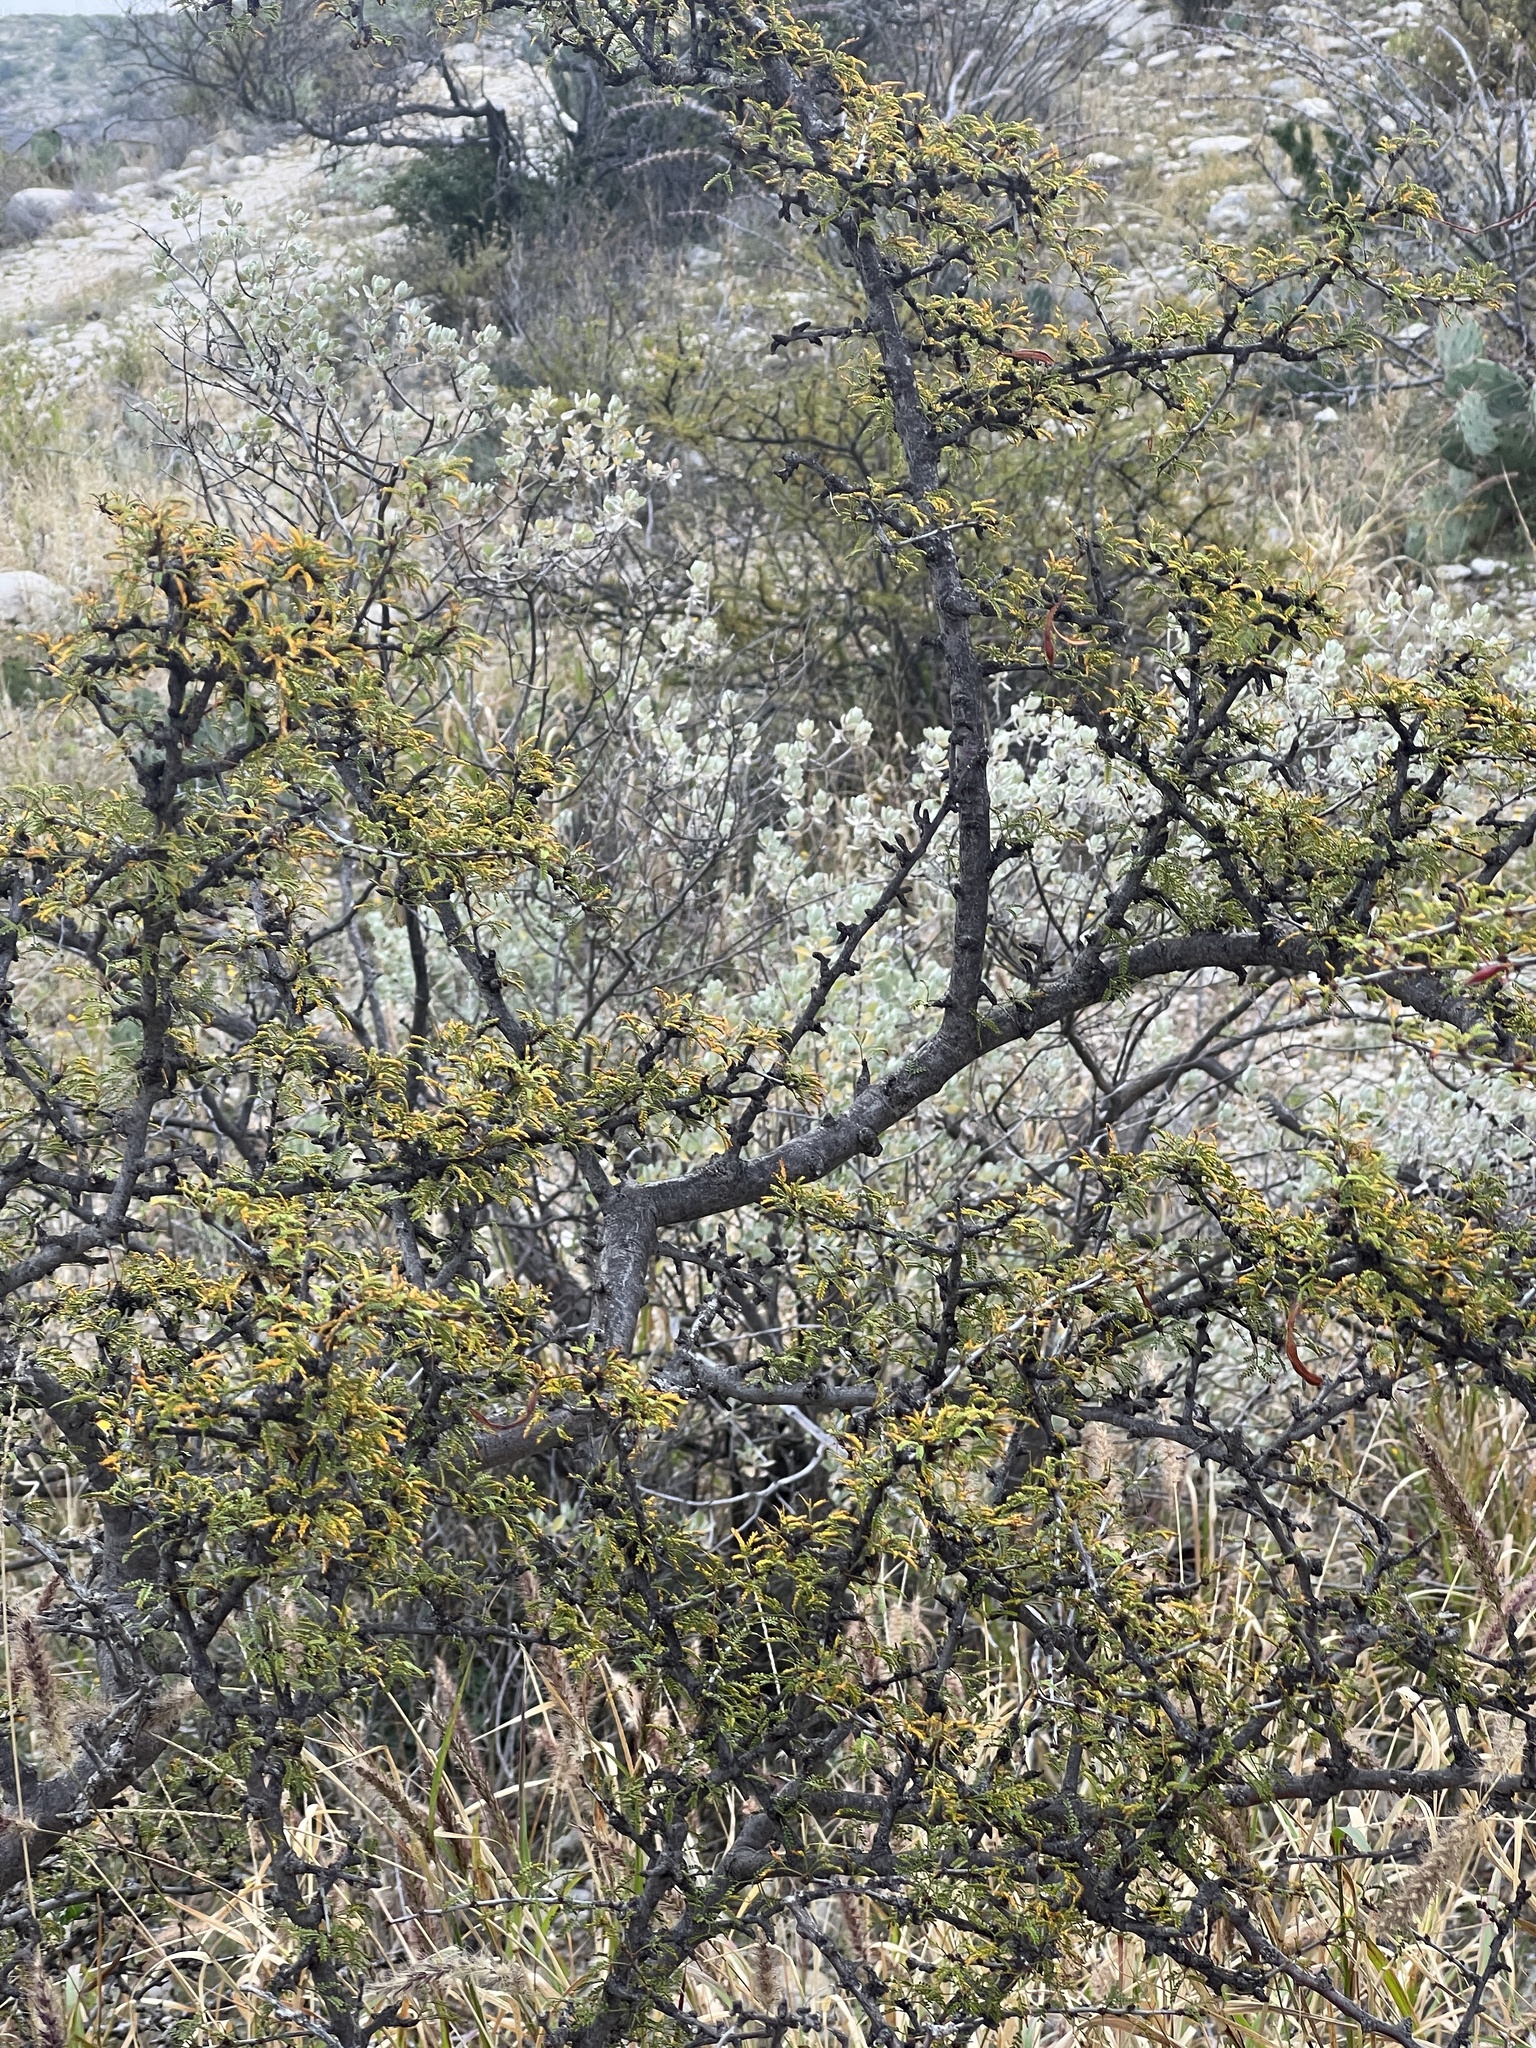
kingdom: Plantae
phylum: Tracheophyta
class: Magnoliopsida
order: Fabales
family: Fabaceae
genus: Vachellia
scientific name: Vachellia vernicosa
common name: Viscid acacia
